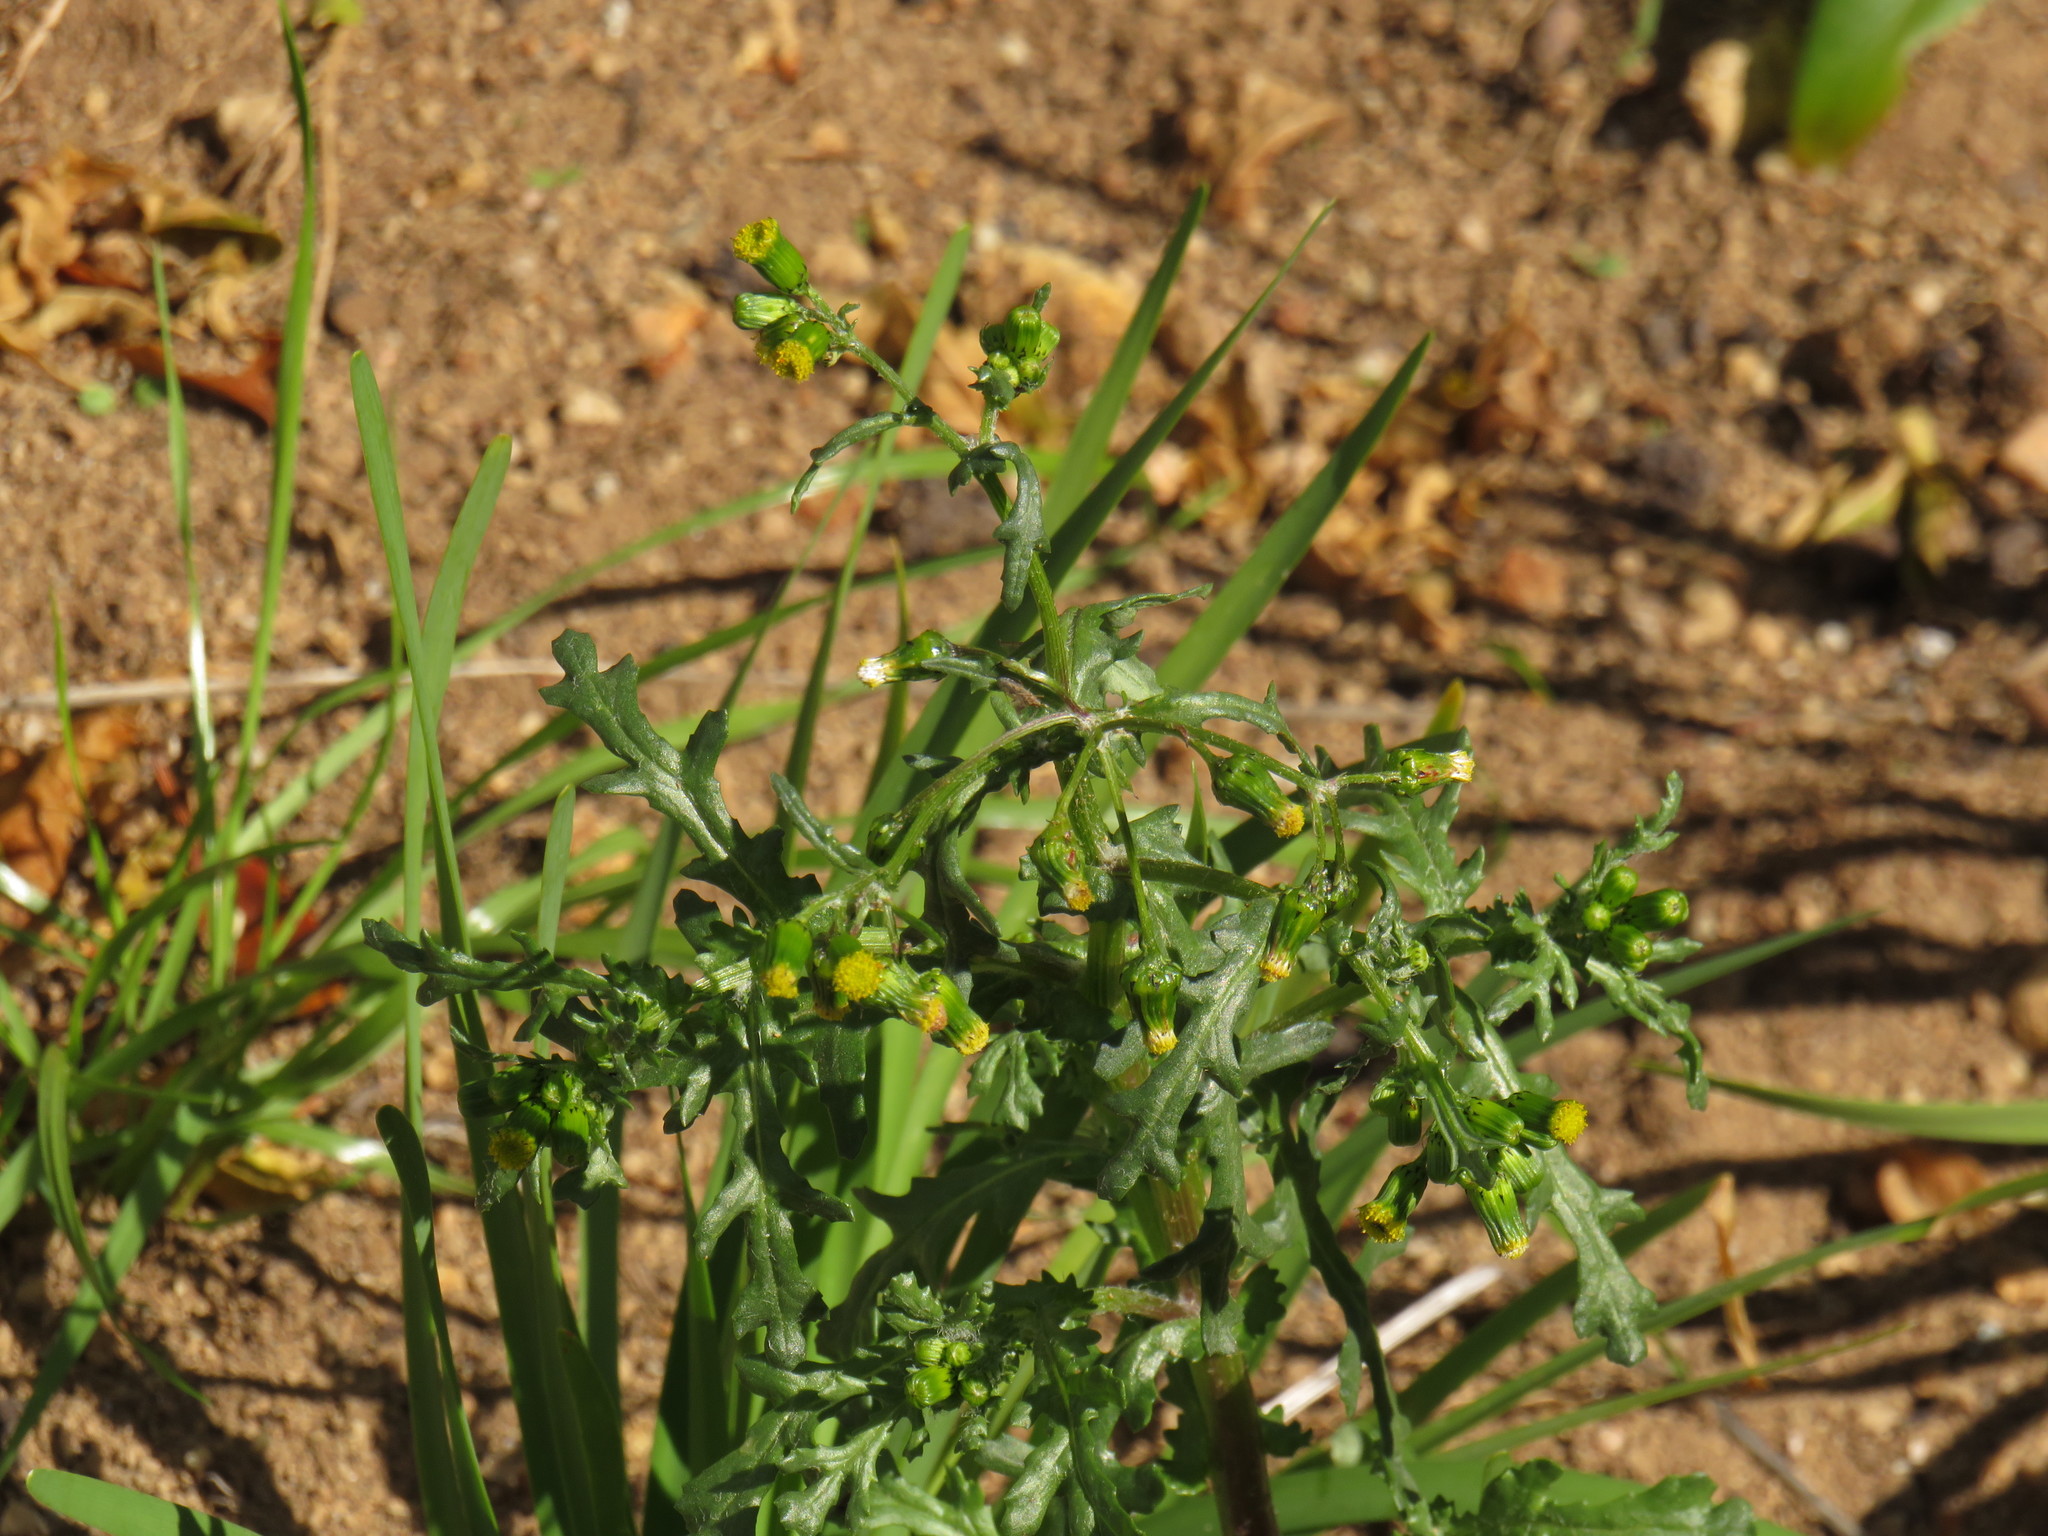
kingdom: Plantae
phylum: Tracheophyta
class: Magnoliopsida
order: Asterales
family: Asteraceae
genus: Senecio
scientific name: Senecio vulgaris
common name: Old-man-in-the-spring
